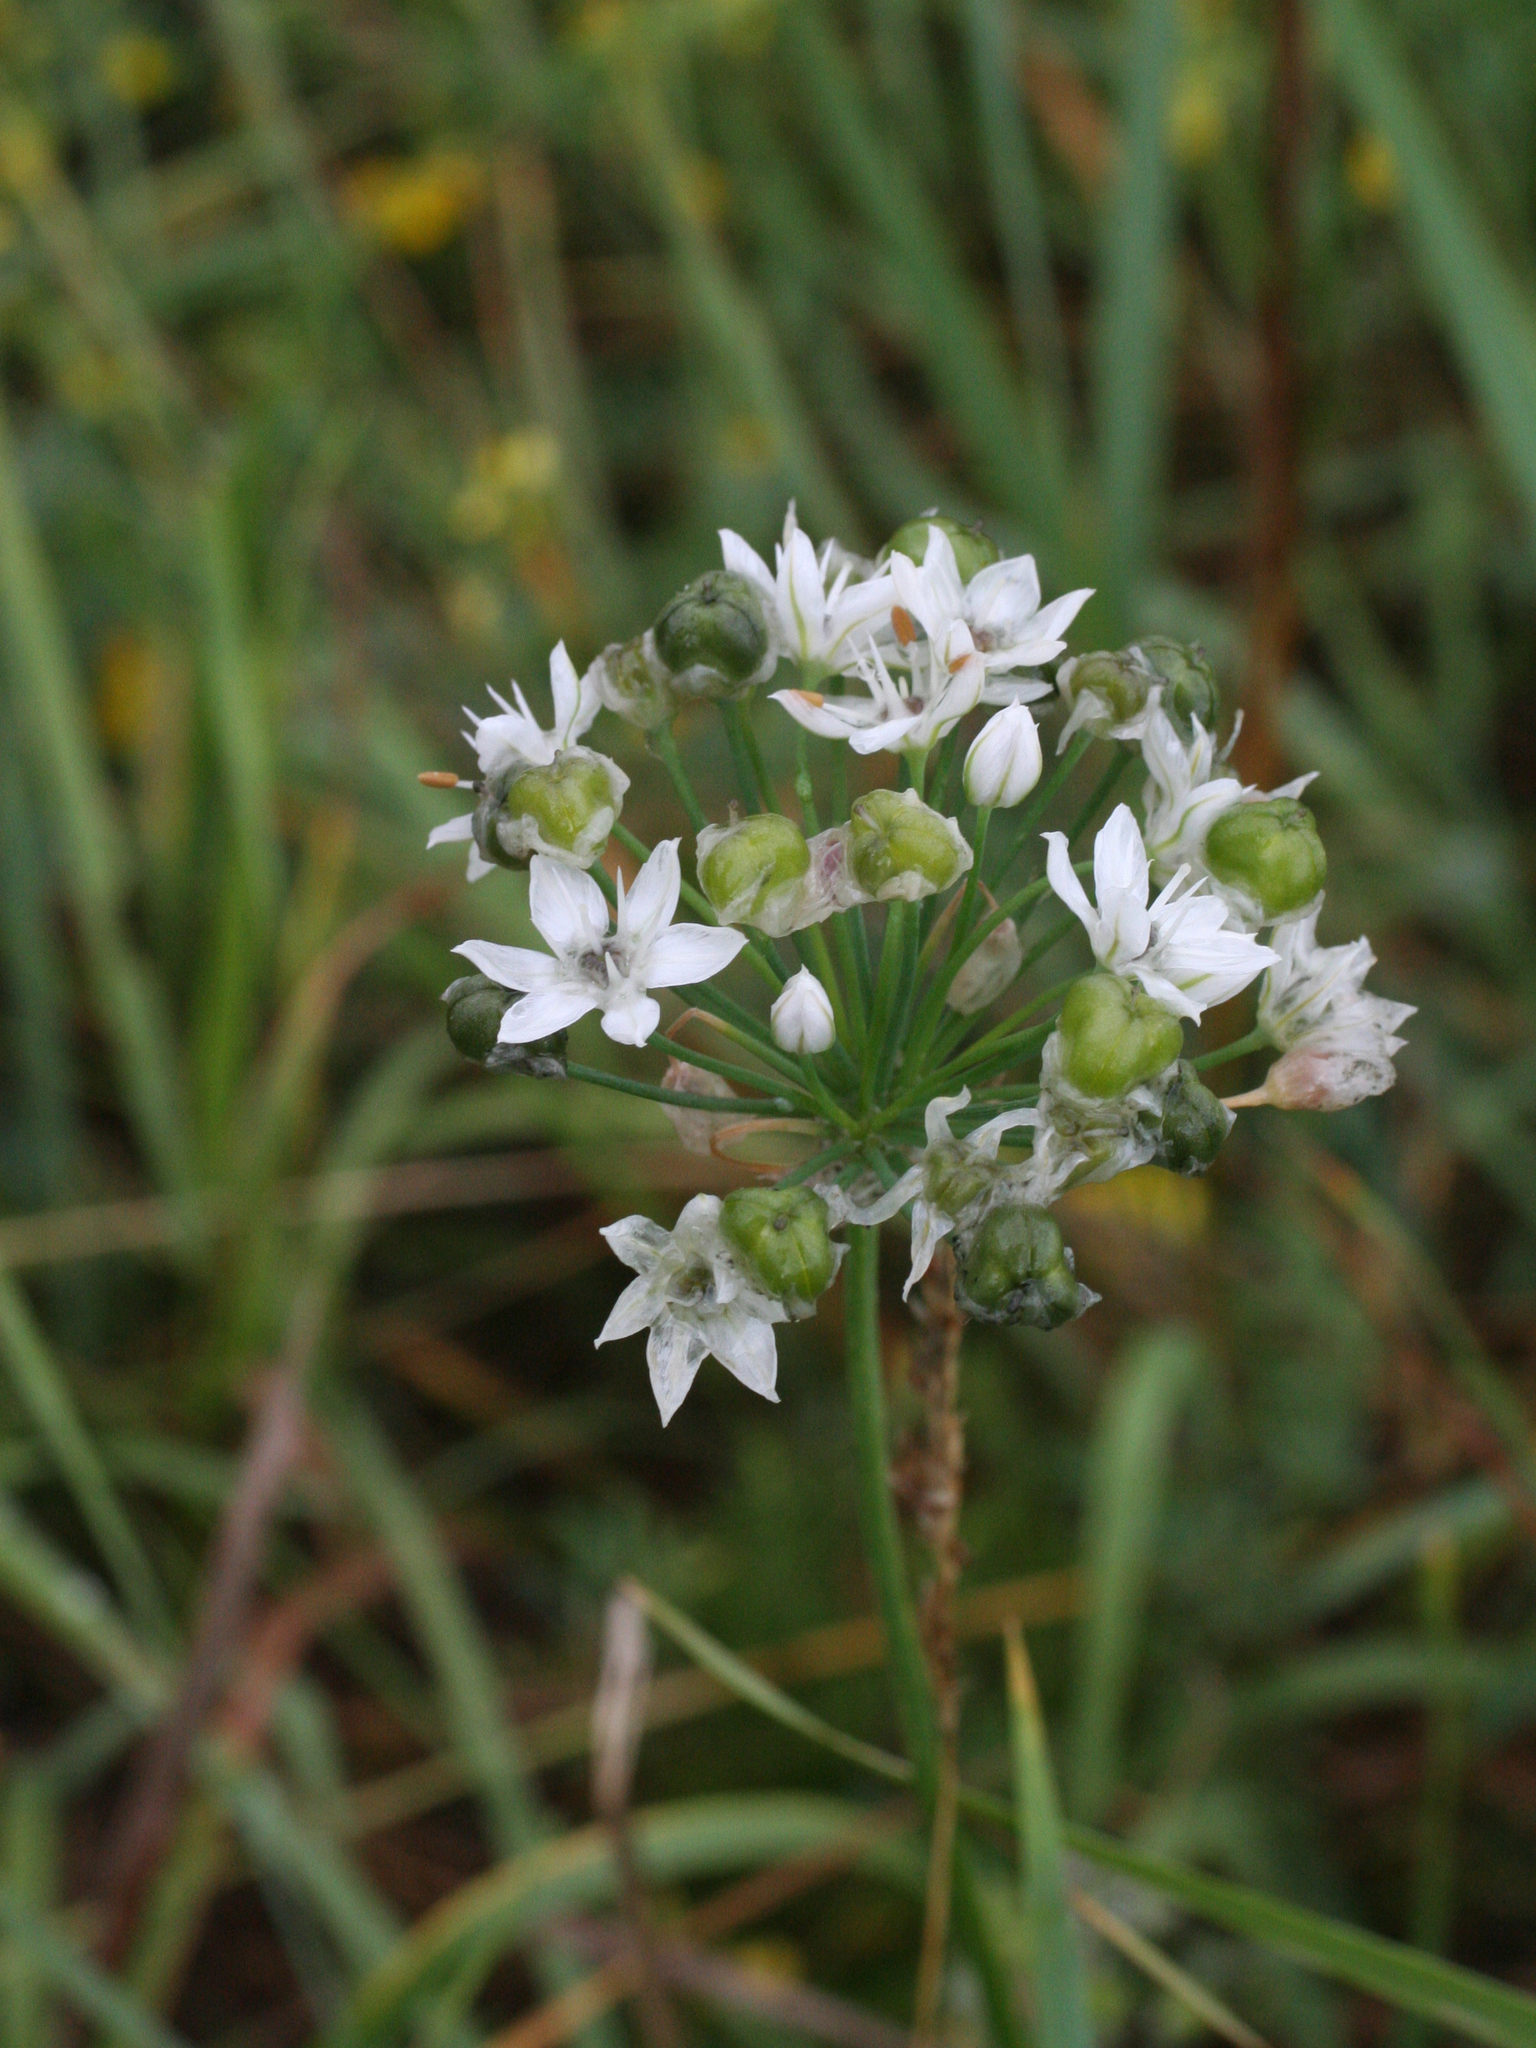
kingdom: Plantae
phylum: Tracheophyta
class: Liliopsida
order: Asparagales
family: Amaryllidaceae
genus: Allium
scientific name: Allium ramosum
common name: Fragrant garlic
